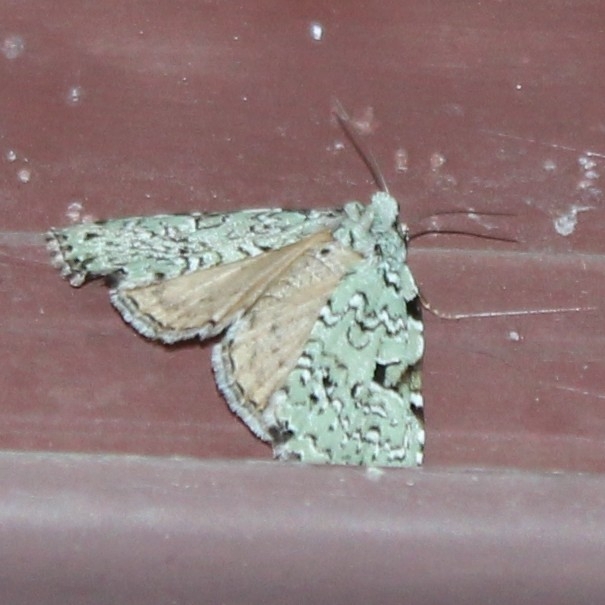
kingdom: Animalia
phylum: Arthropoda
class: Insecta
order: Lepidoptera
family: Noctuidae
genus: Leuconycta
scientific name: Leuconycta diphteroides
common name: Green leuconycta moth
